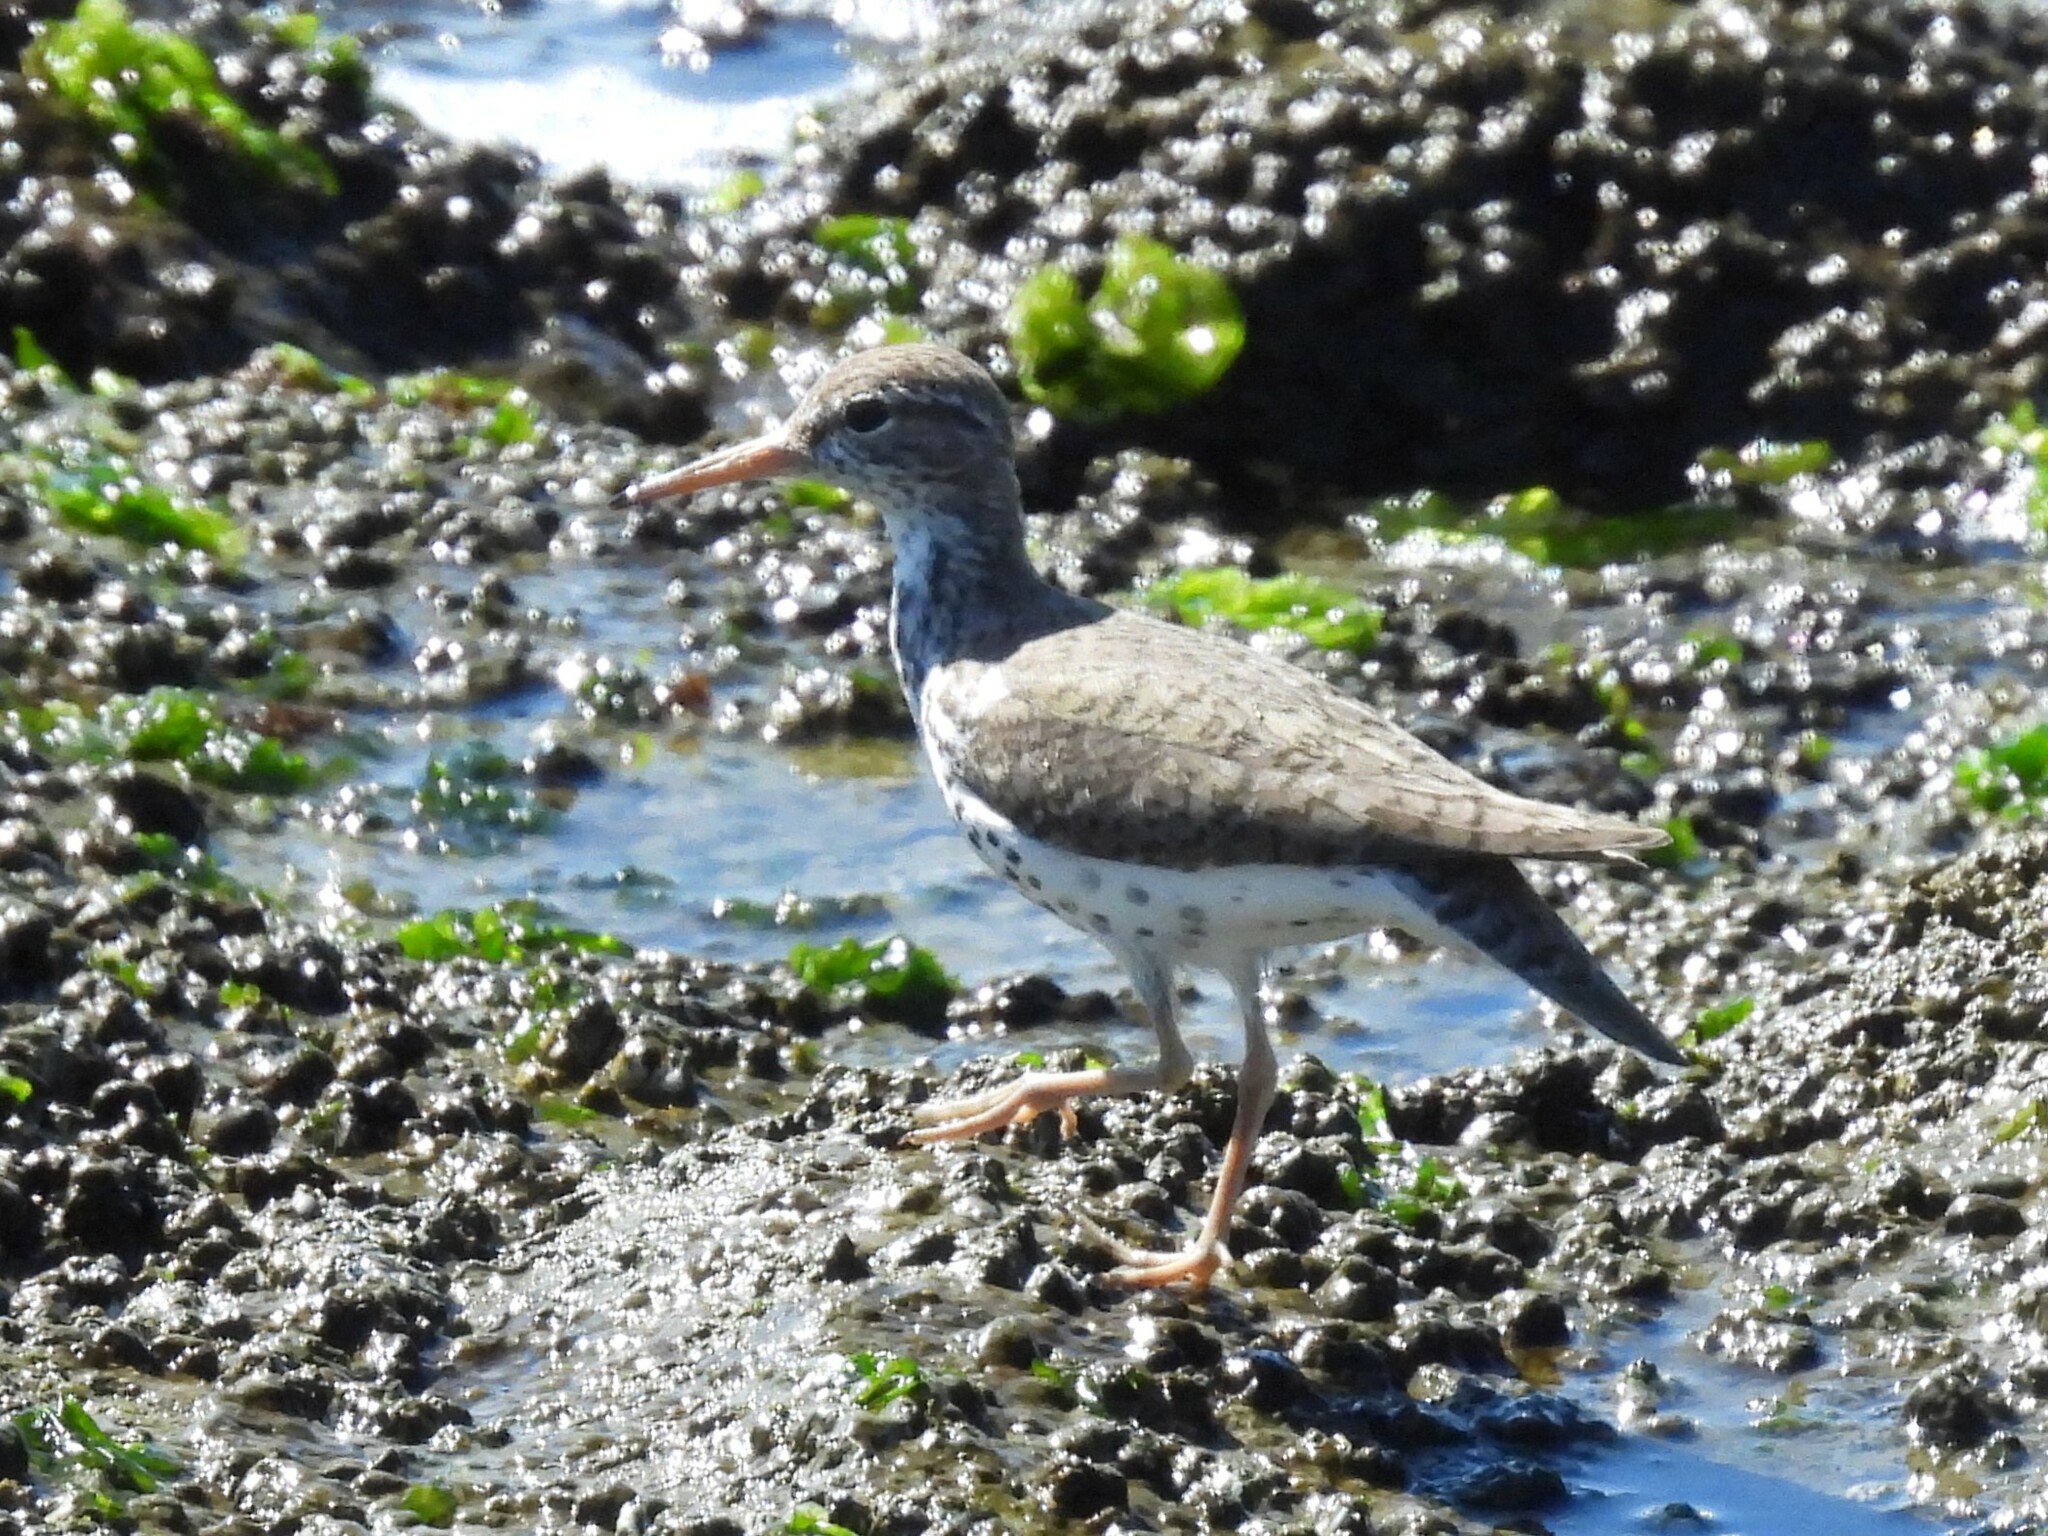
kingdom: Animalia
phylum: Chordata
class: Aves
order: Charadriiformes
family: Scolopacidae
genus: Actitis
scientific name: Actitis macularius
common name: Spotted sandpiper
